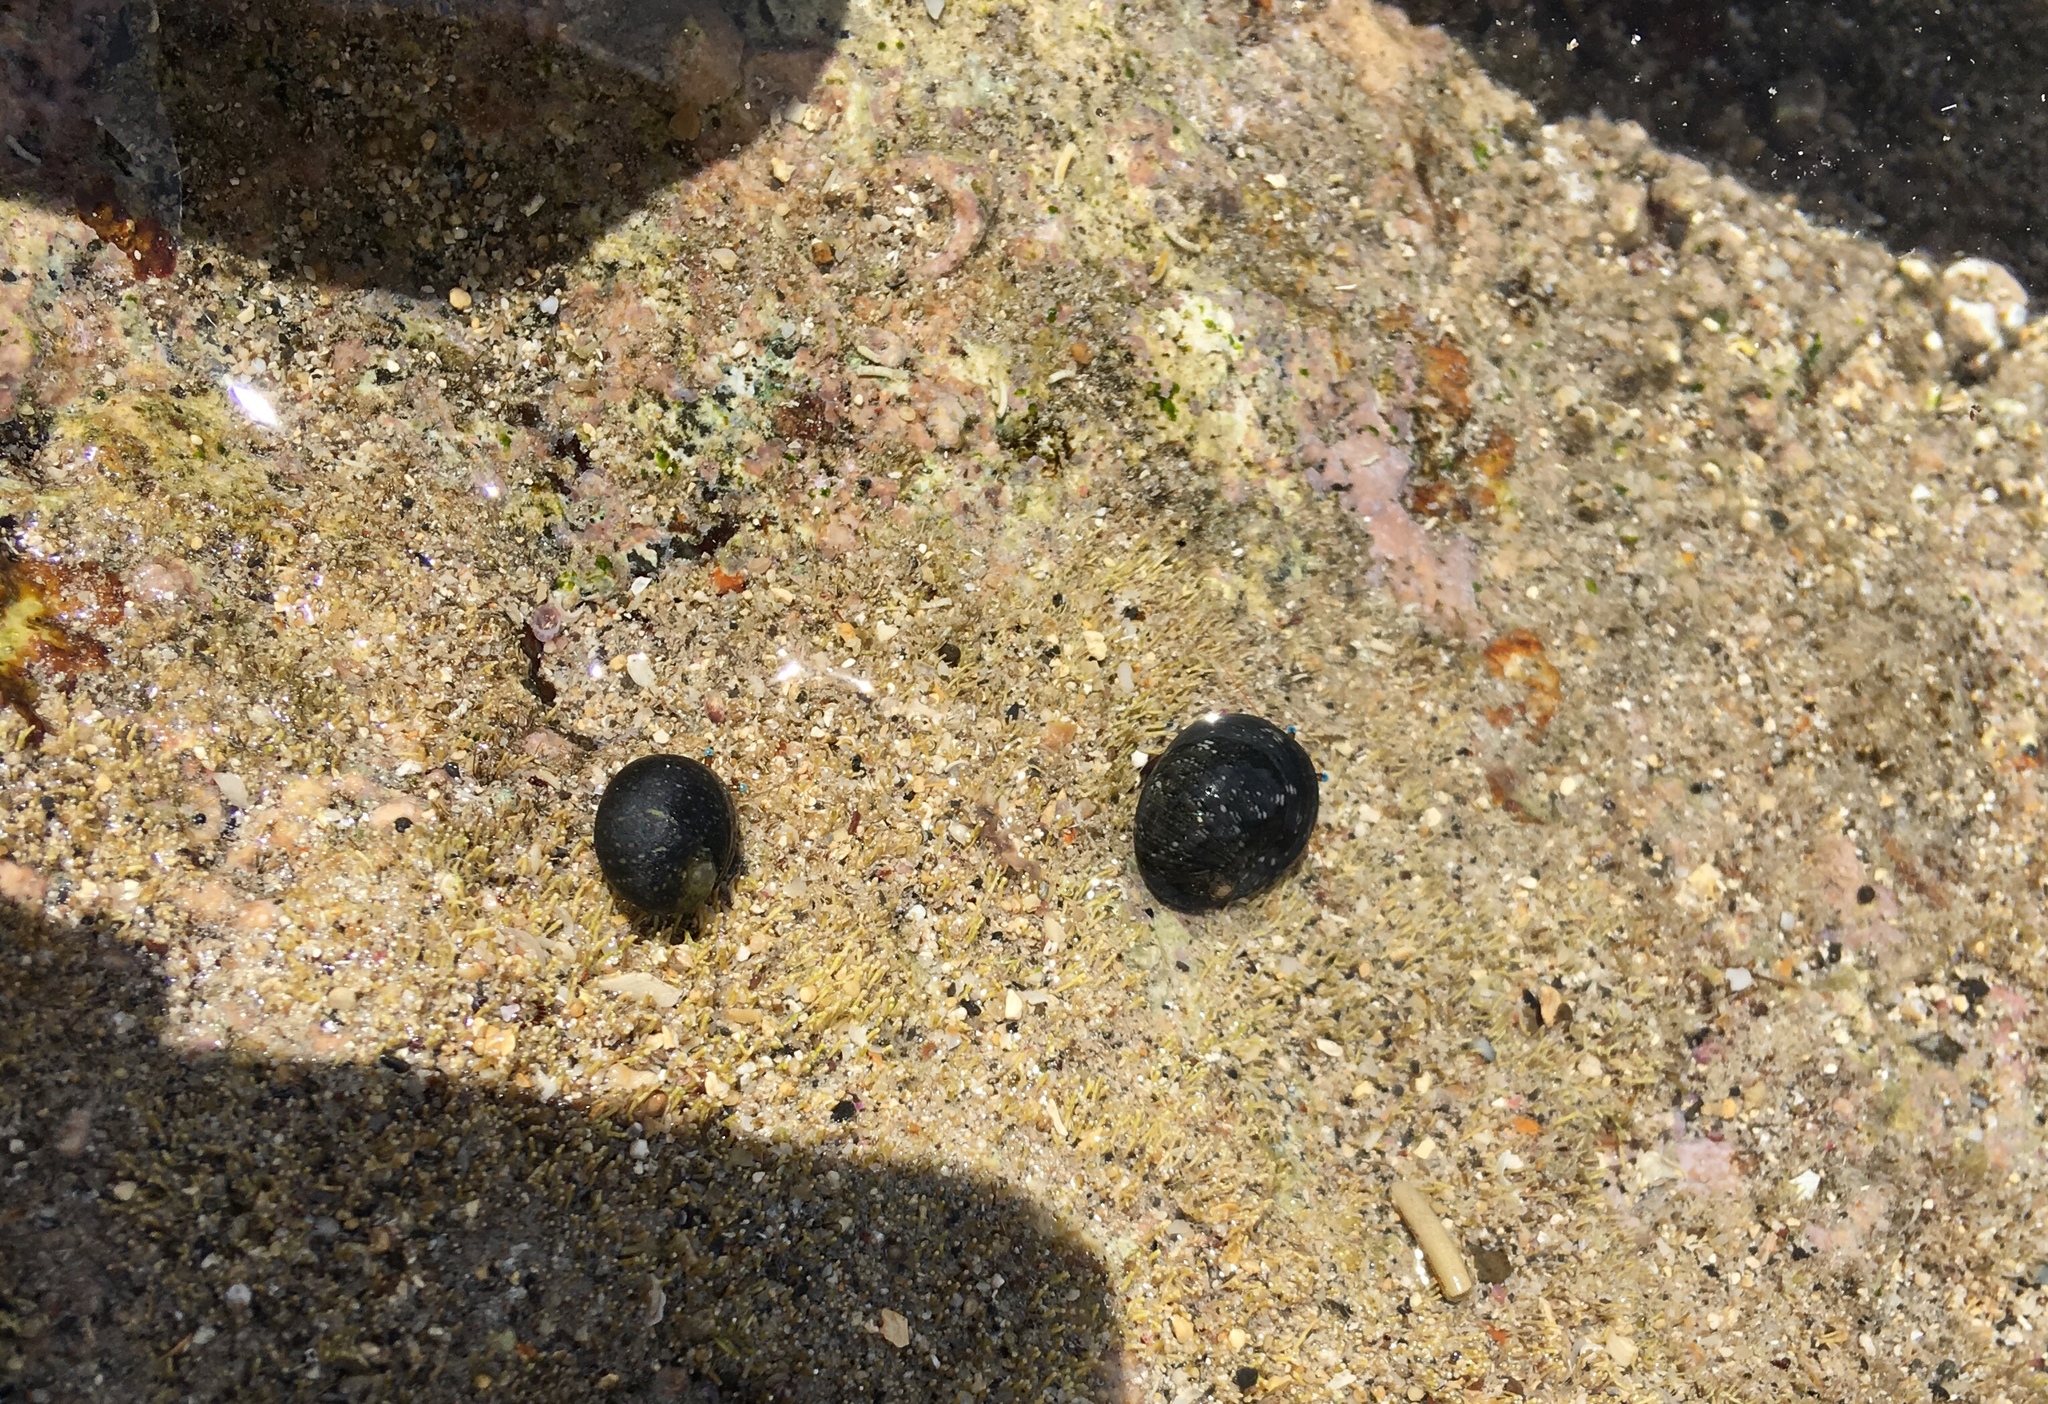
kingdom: Animalia
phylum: Mollusca
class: Gastropoda
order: Cycloneritida
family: Neritidae
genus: Nerita
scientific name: Nerita picea
